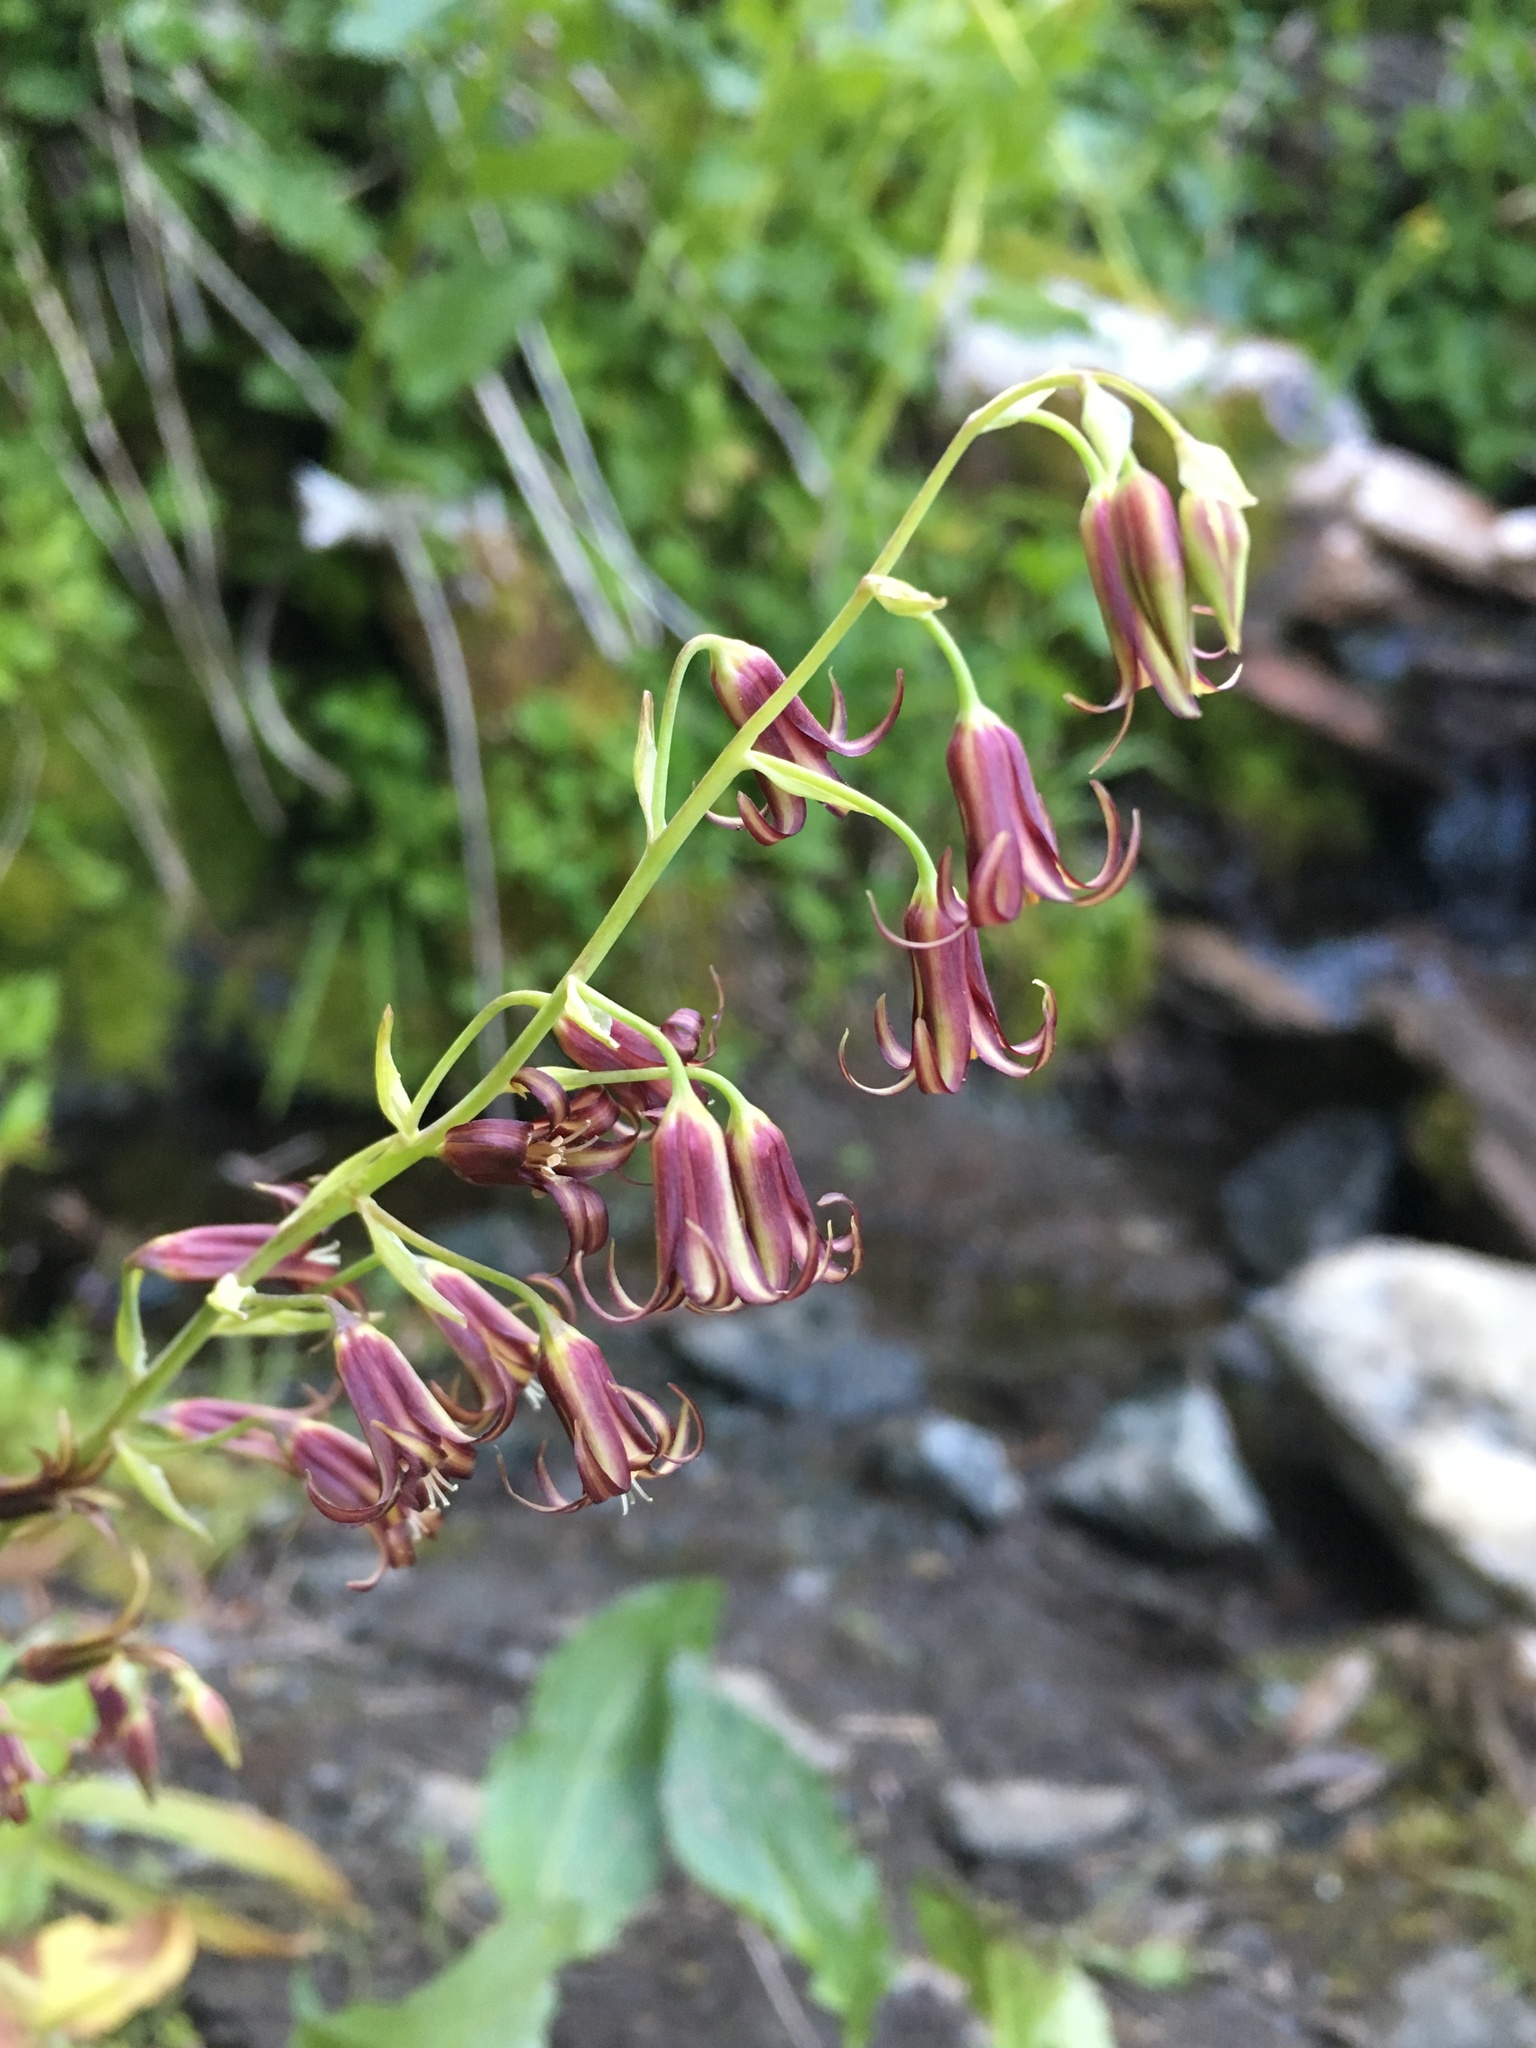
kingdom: Plantae
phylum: Tracheophyta
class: Liliopsida
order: Liliales
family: Melanthiaceae
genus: Anticlea
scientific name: Anticlea occidentalis
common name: Bronze-bells
